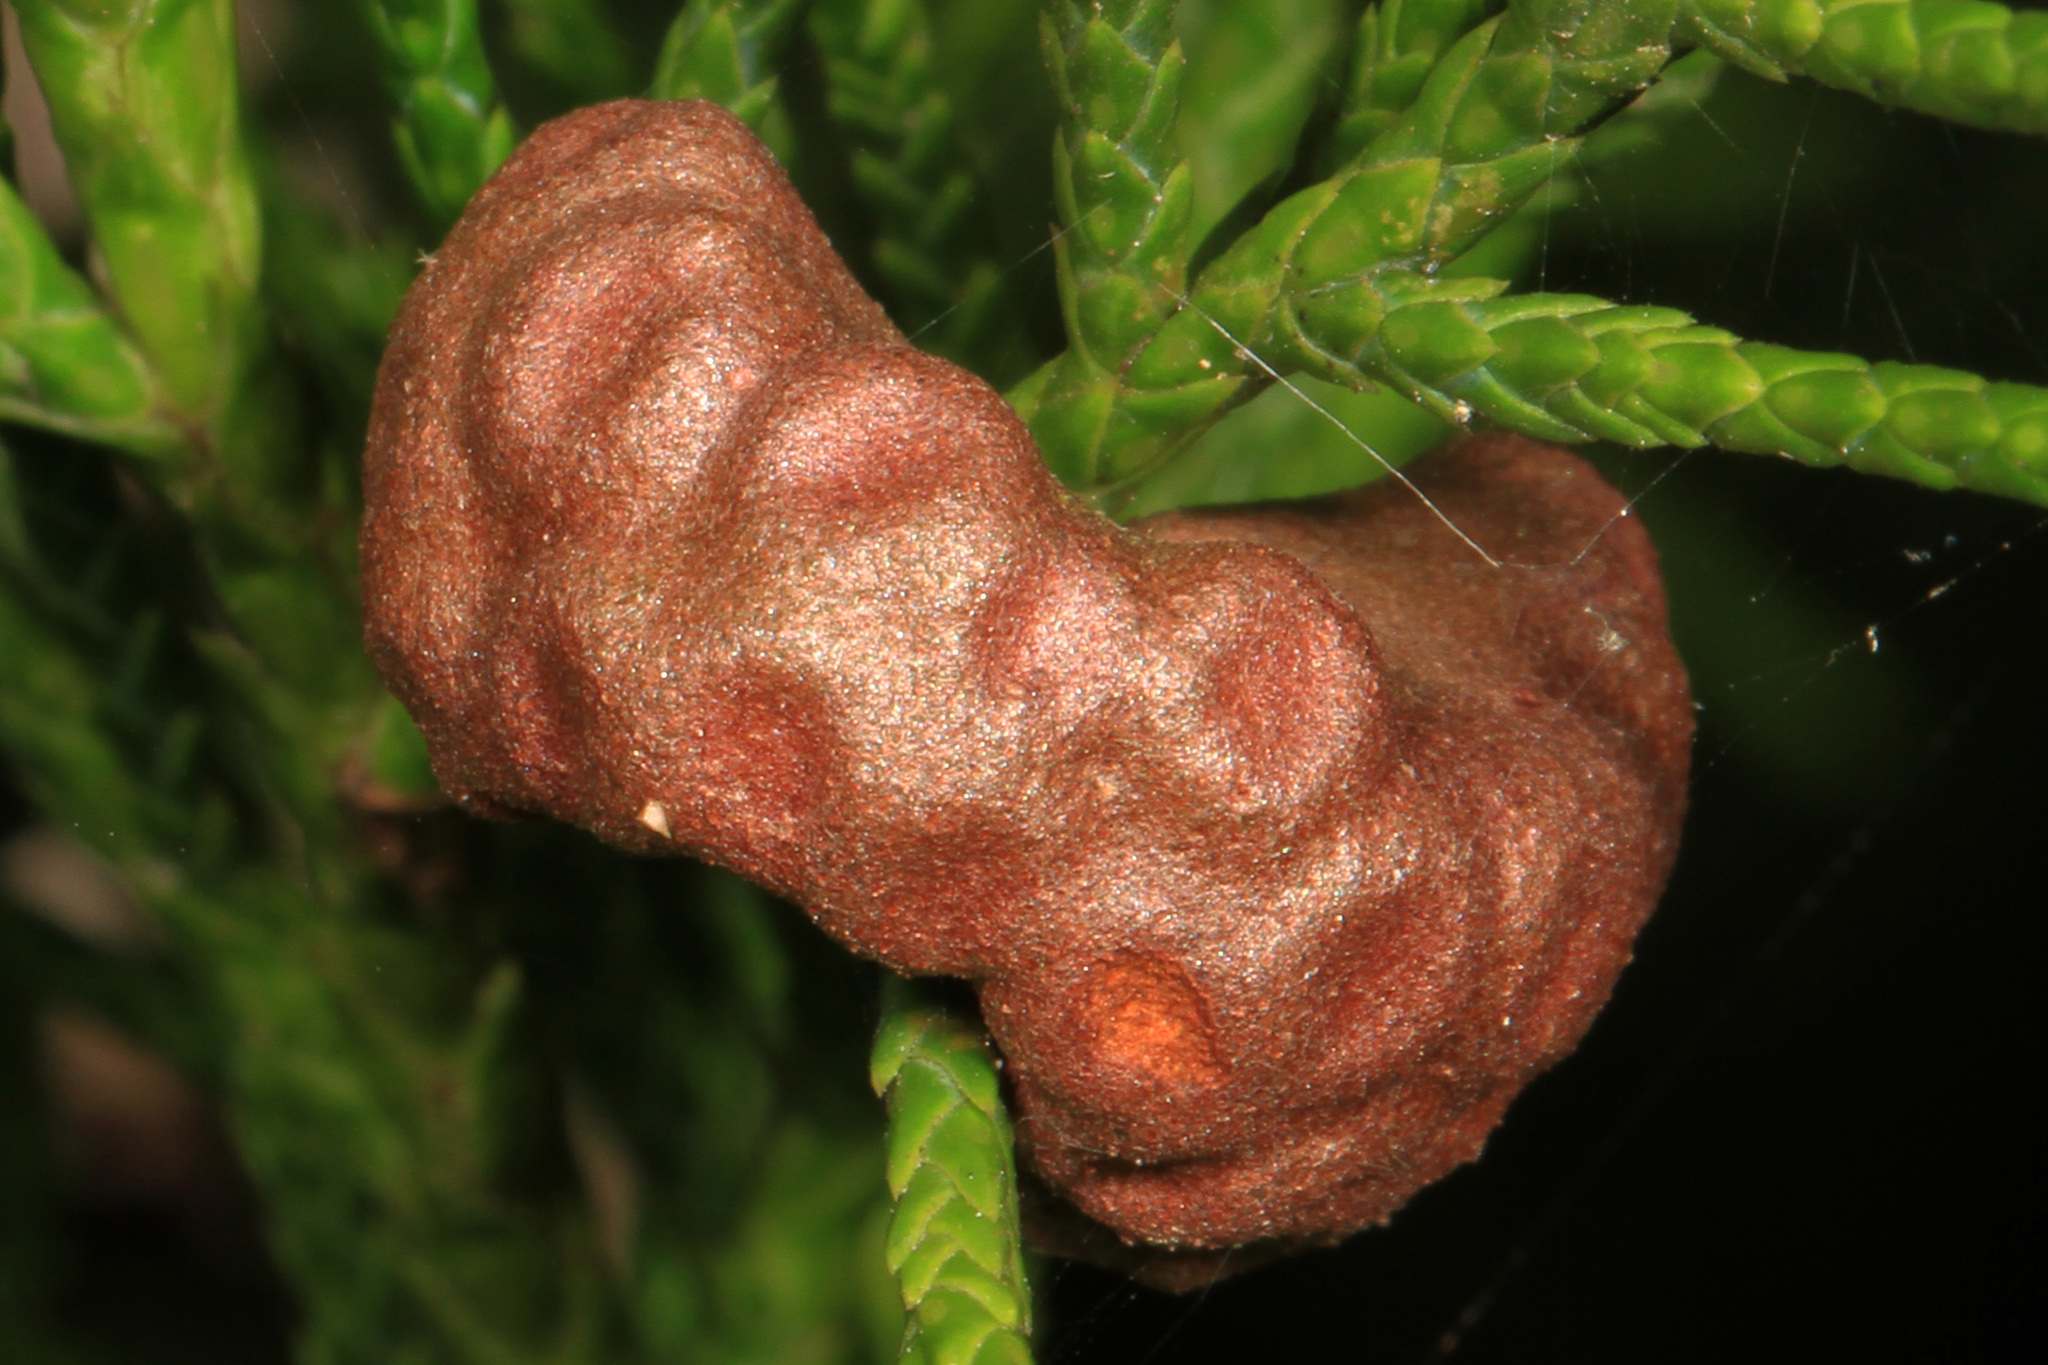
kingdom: Fungi
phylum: Basidiomycota
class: Pucciniomycetes
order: Pucciniales
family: Gymnosporangiaceae
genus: Gymnosporangium
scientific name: Gymnosporangium juniperi-virginianae
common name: Juniper-apple rust
